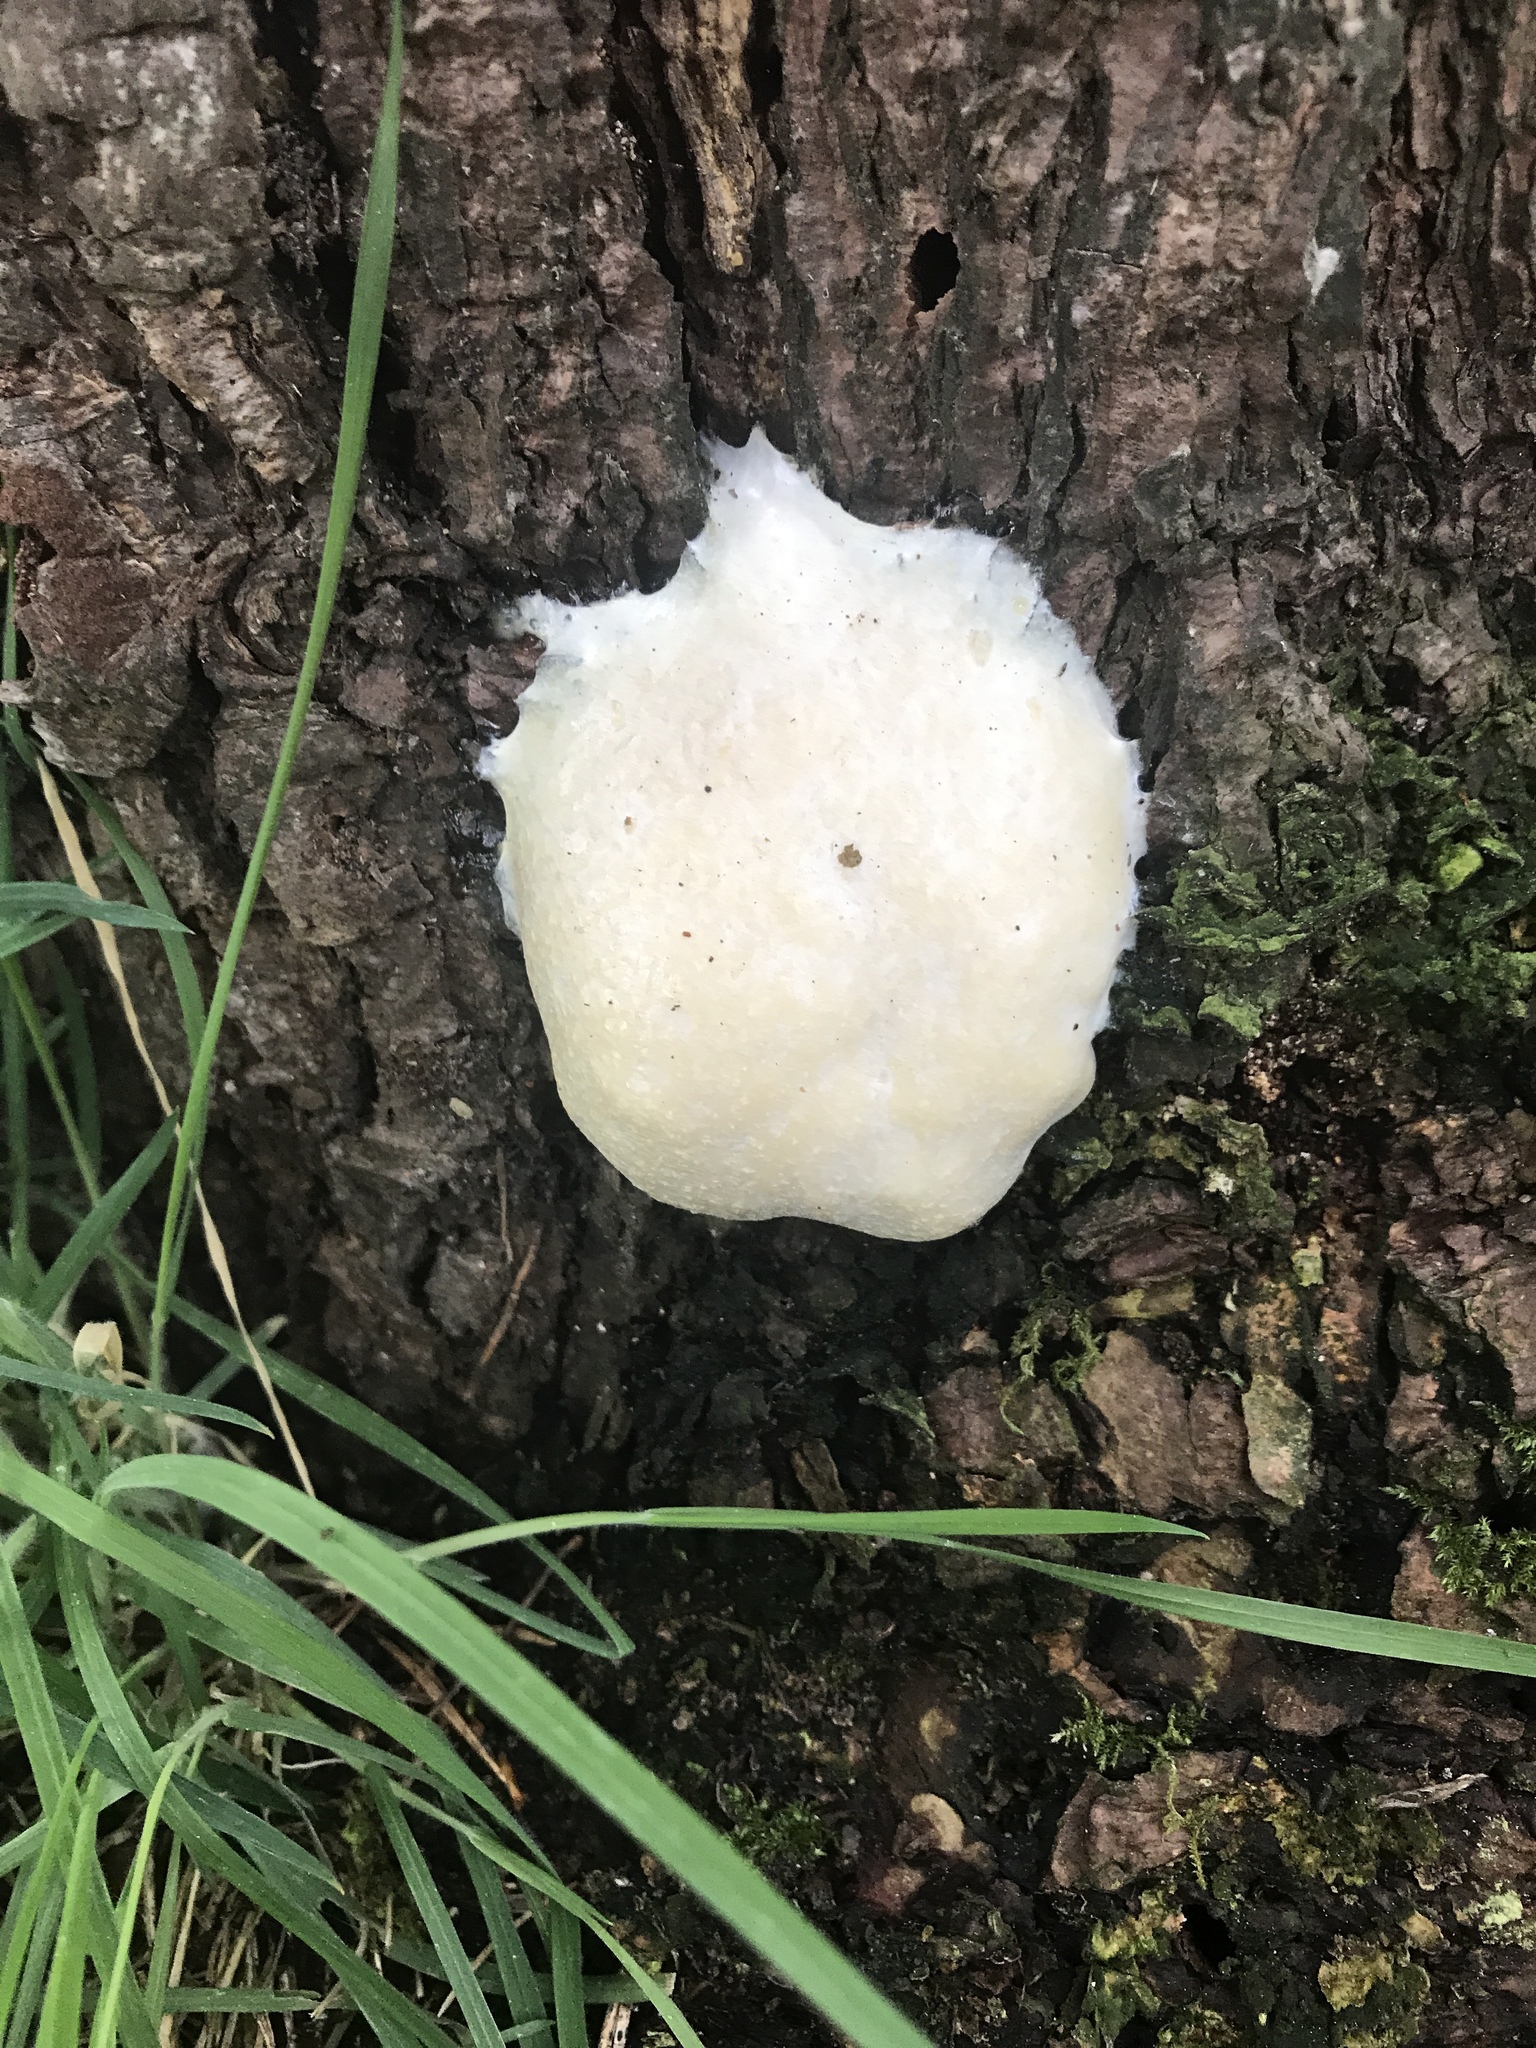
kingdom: Protozoa
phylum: Mycetozoa
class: Myxomycetes
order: Cribrariales
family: Tubiferaceae
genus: Reticularia
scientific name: Reticularia lycoperdon
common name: False puffball
